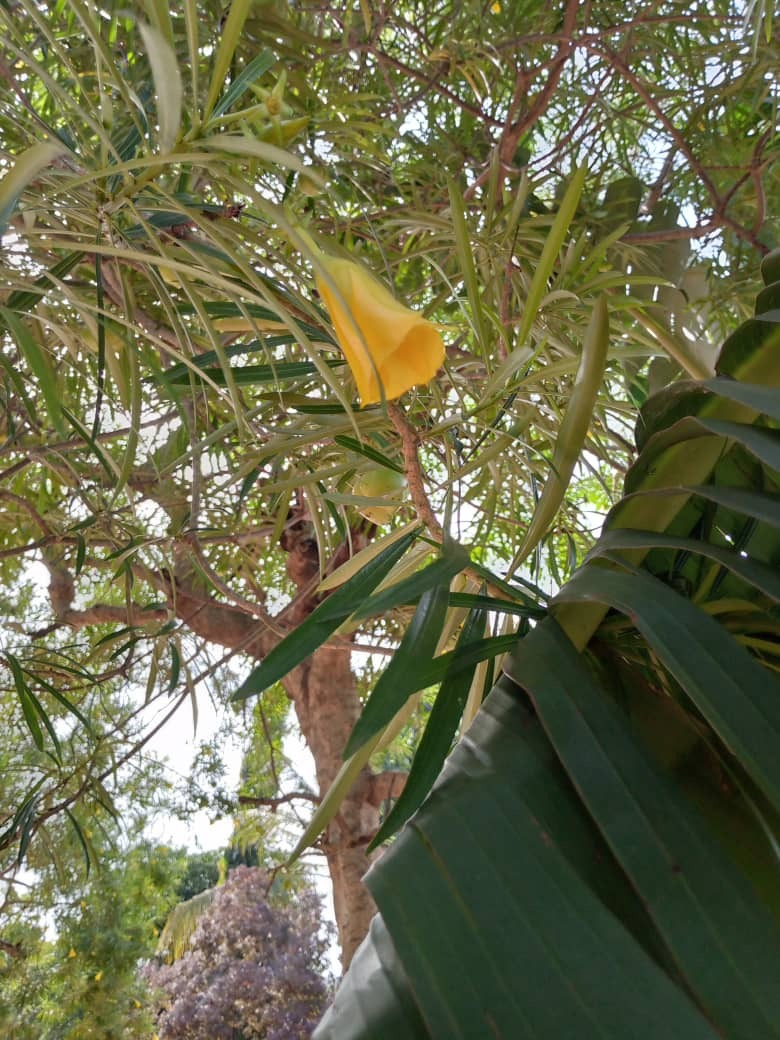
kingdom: Plantae
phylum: Tracheophyta
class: Magnoliopsida
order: Gentianales
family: Apocynaceae
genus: Cascabela
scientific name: Cascabela thevetia
